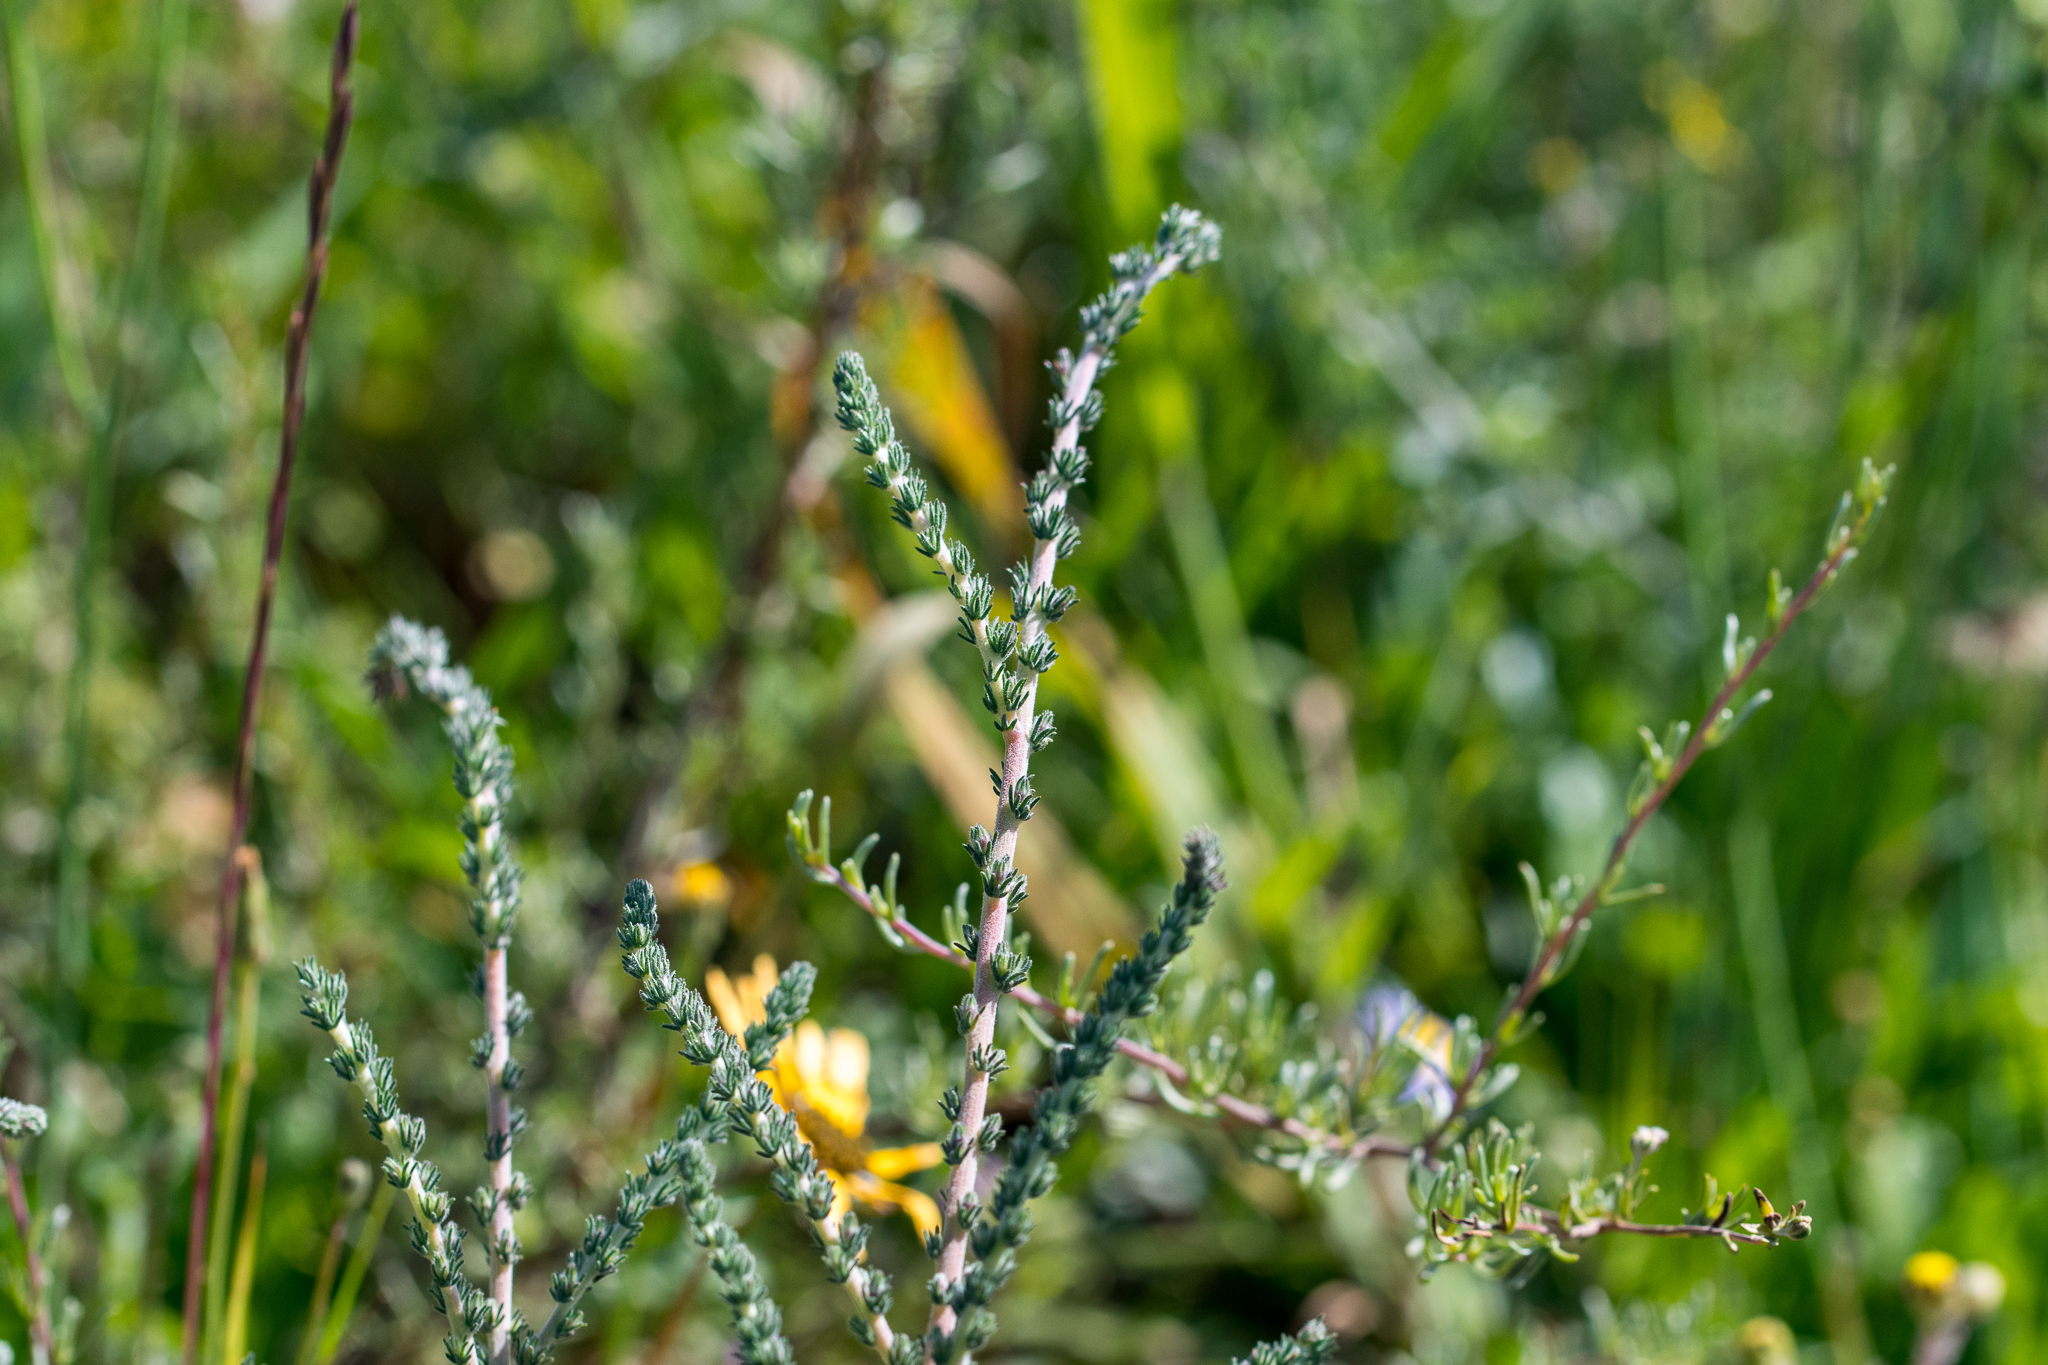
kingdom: Plantae
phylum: Tracheophyta
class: Magnoliopsida
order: Fabales
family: Fabaceae
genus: Aspalathus
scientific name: Aspalathus hispida
